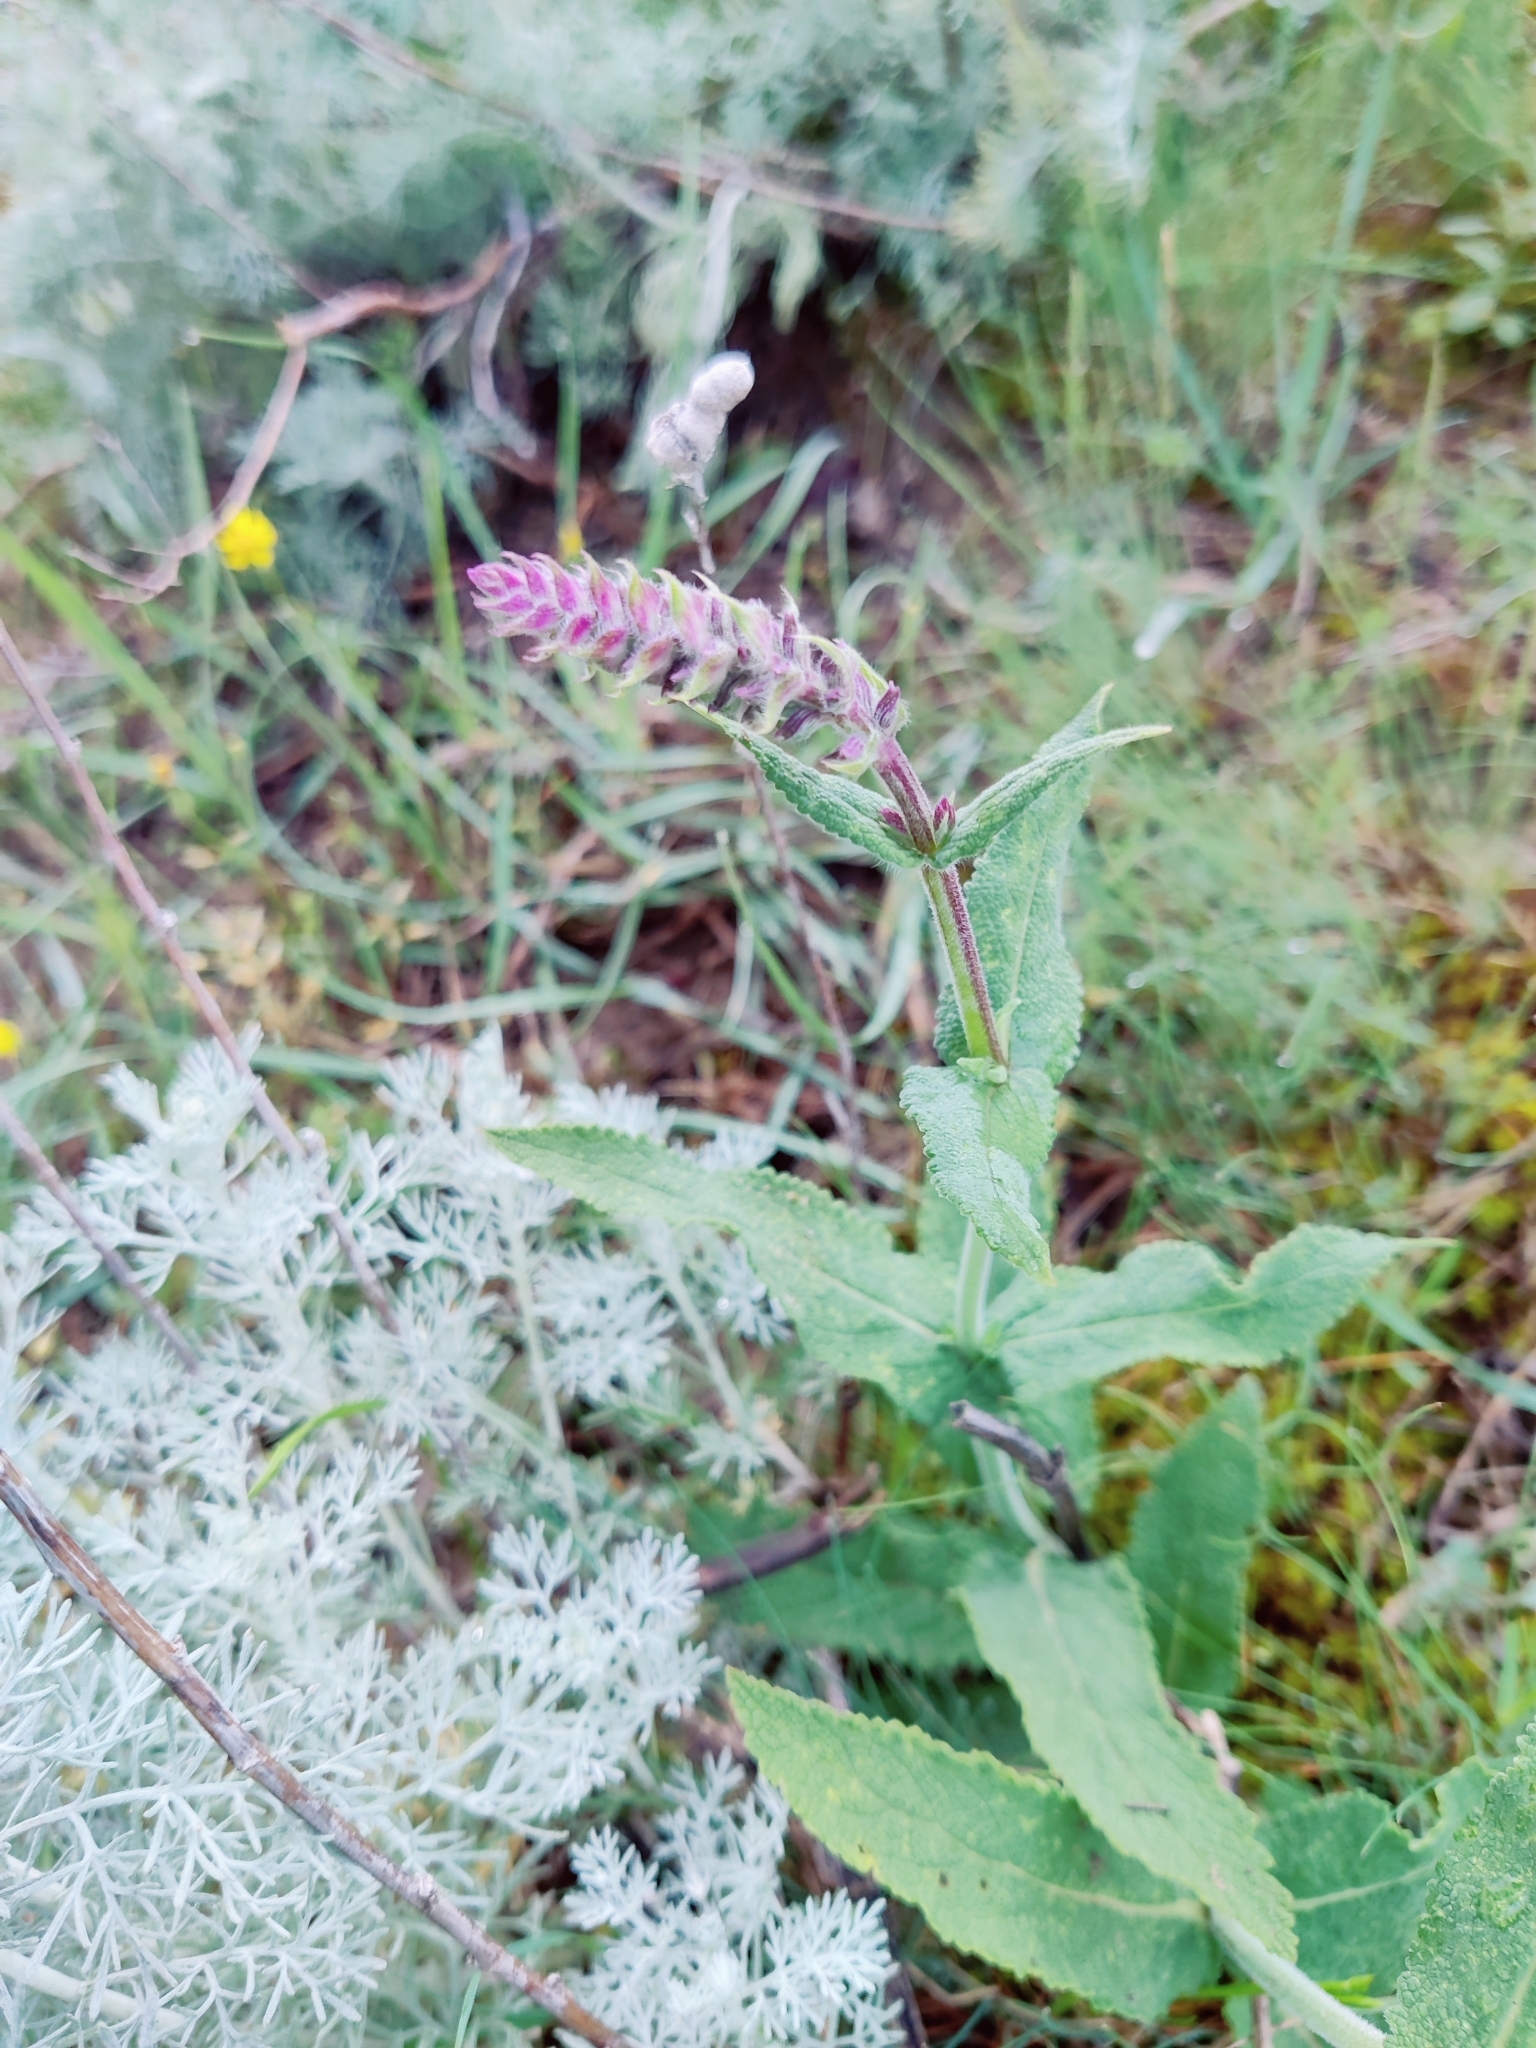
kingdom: Plantae
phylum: Tracheophyta
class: Magnoliopsida
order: Lamiales
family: Lamiaceae
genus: Salvia
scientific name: Salvia nemorosa
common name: Balkan clary
